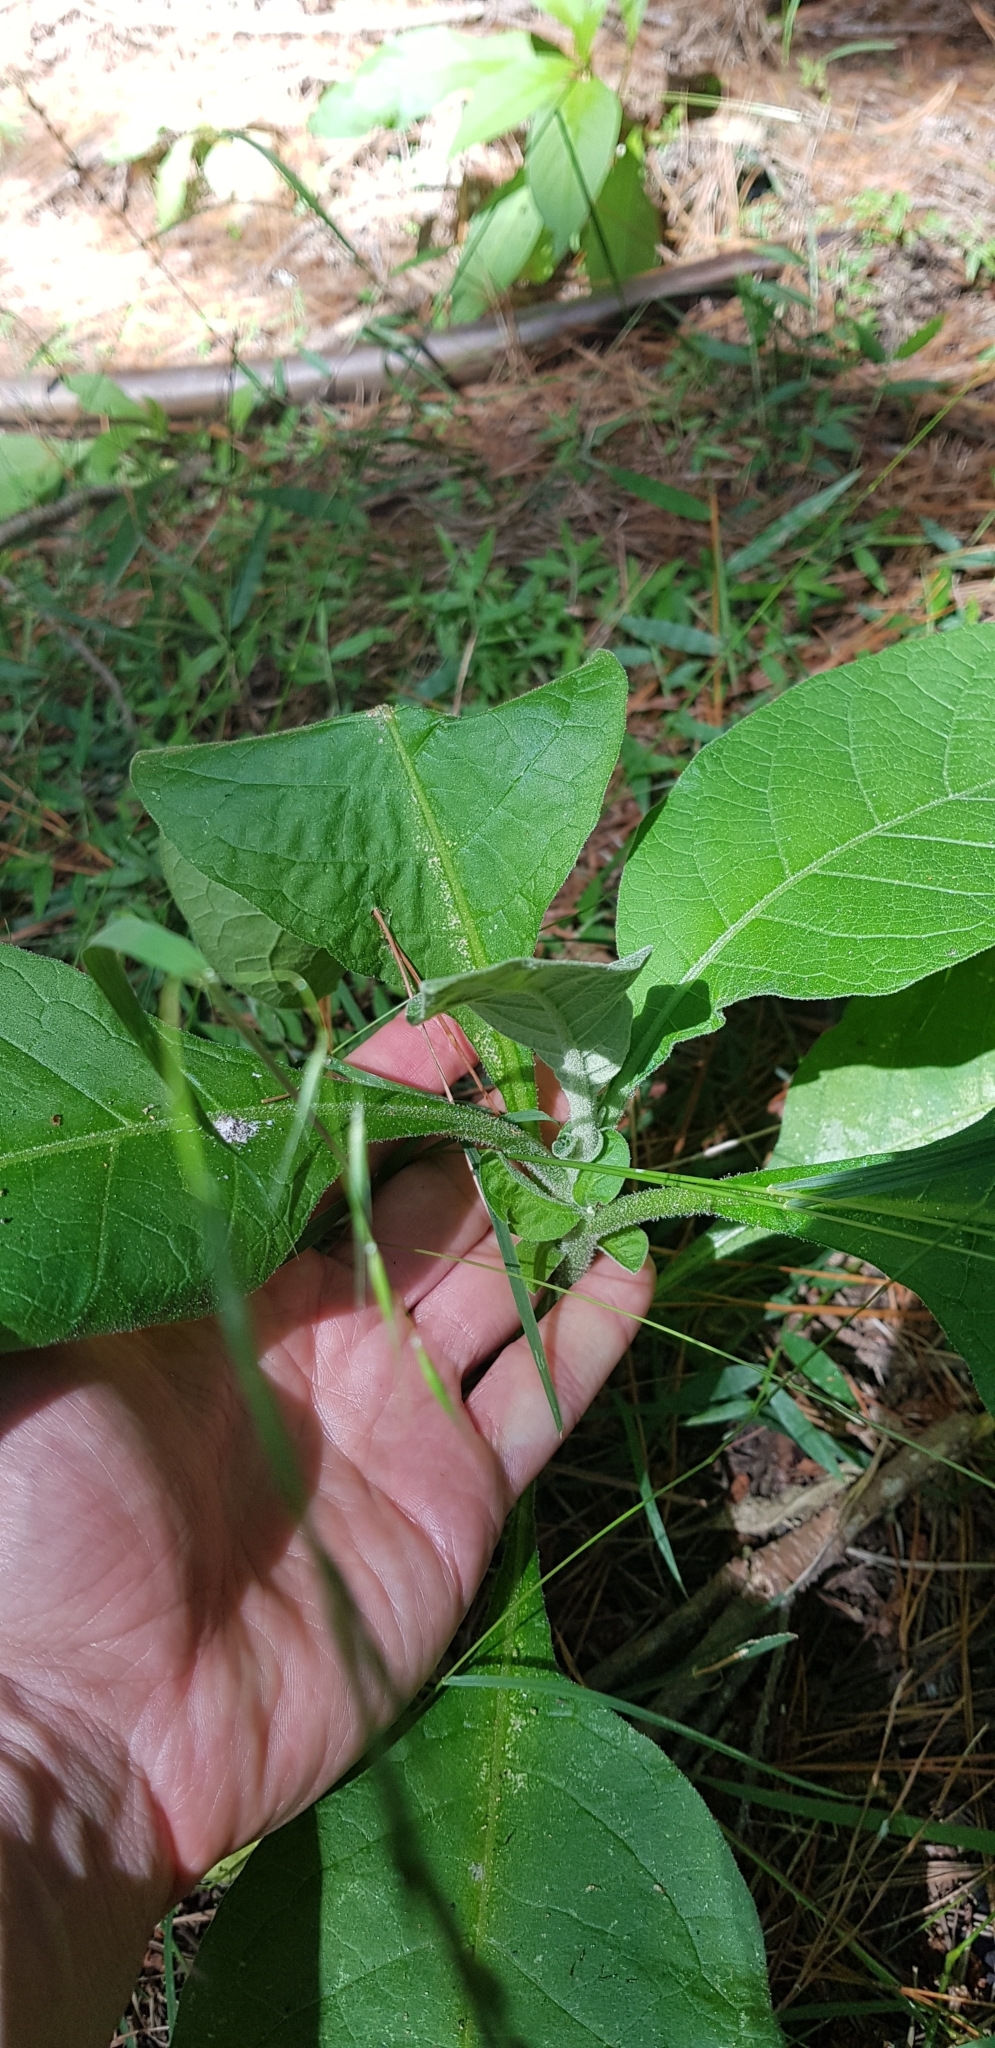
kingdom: Plantae
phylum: Tracheophyta
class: Magnoliopsida
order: Solanales
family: Solanaceae
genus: Solanum
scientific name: Solanum mauritianum
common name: Earleaf nightshade
